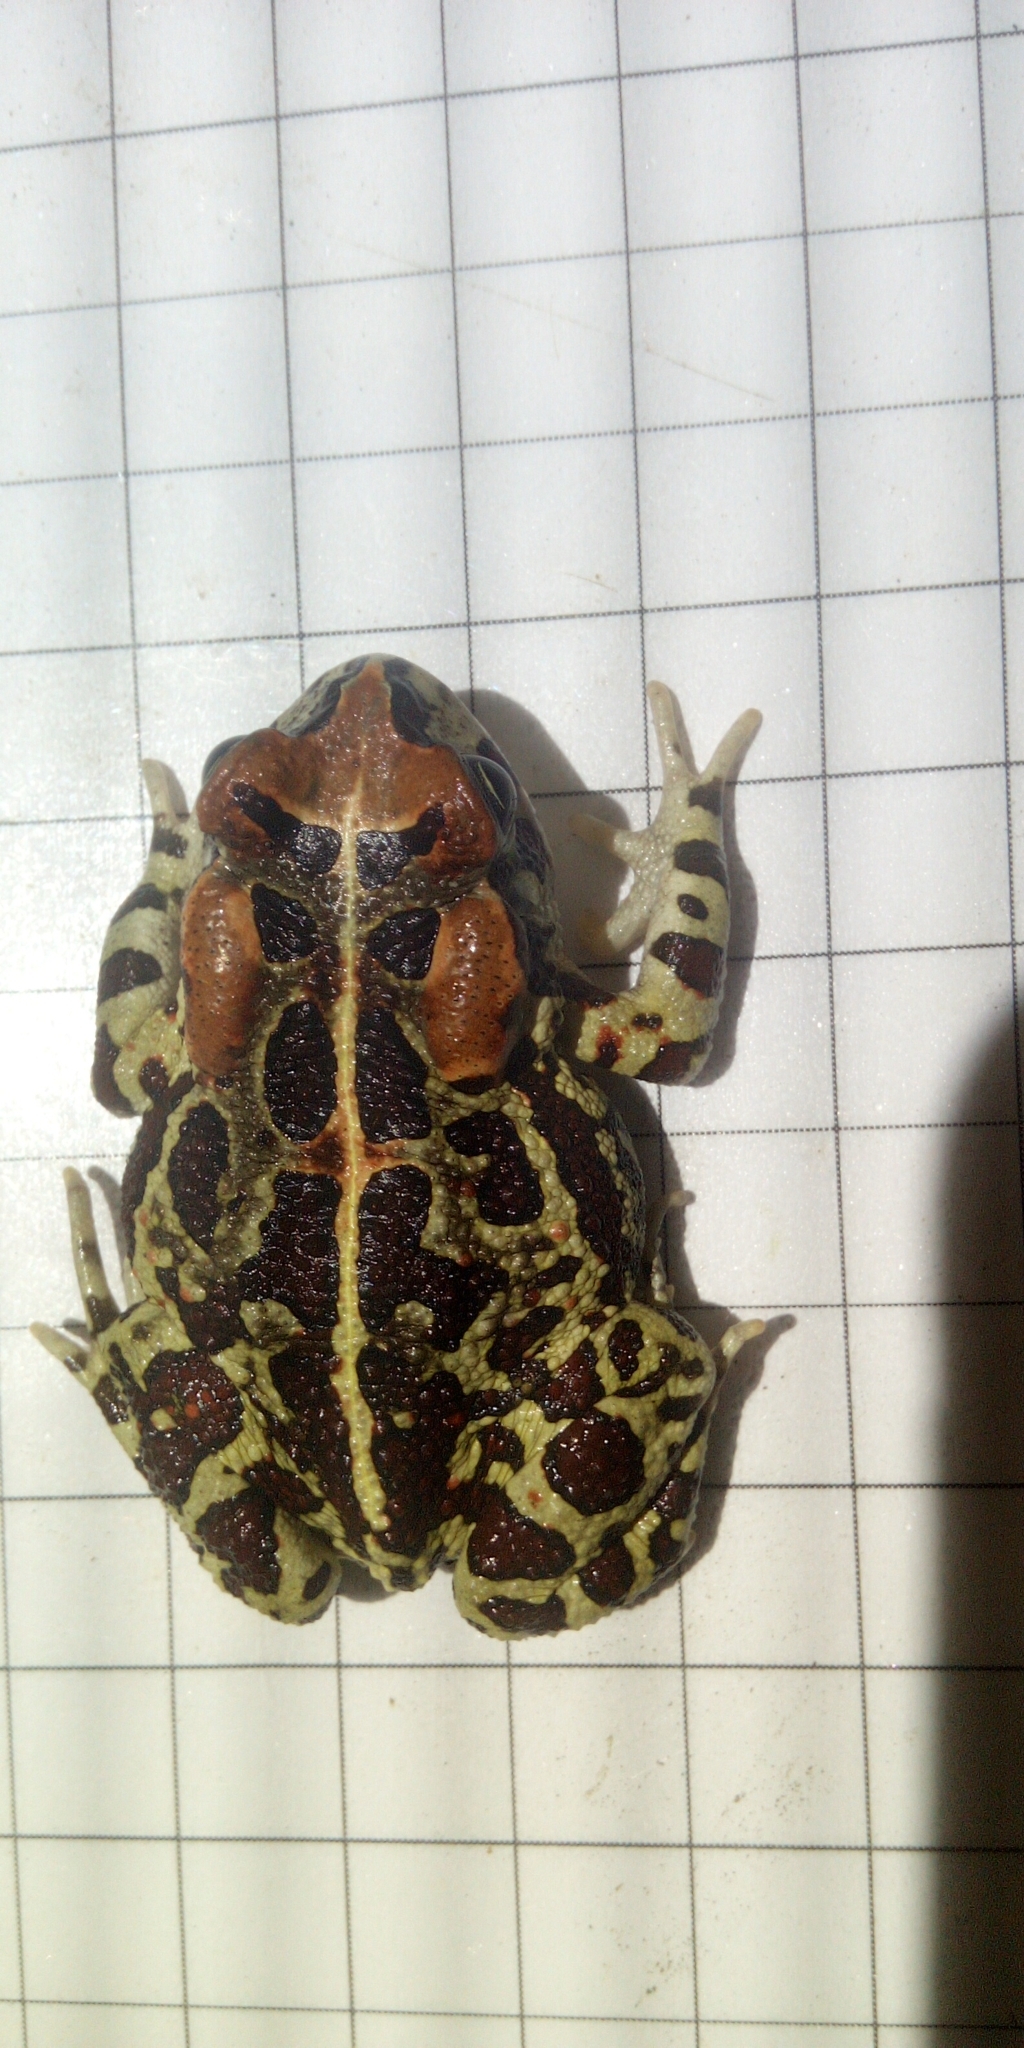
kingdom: Animalia
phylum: Chordata
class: Amphibia
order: Anura
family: Bufonidae
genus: Sclerophrys
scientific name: Sclerophrys pantherina
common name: Panther toad
